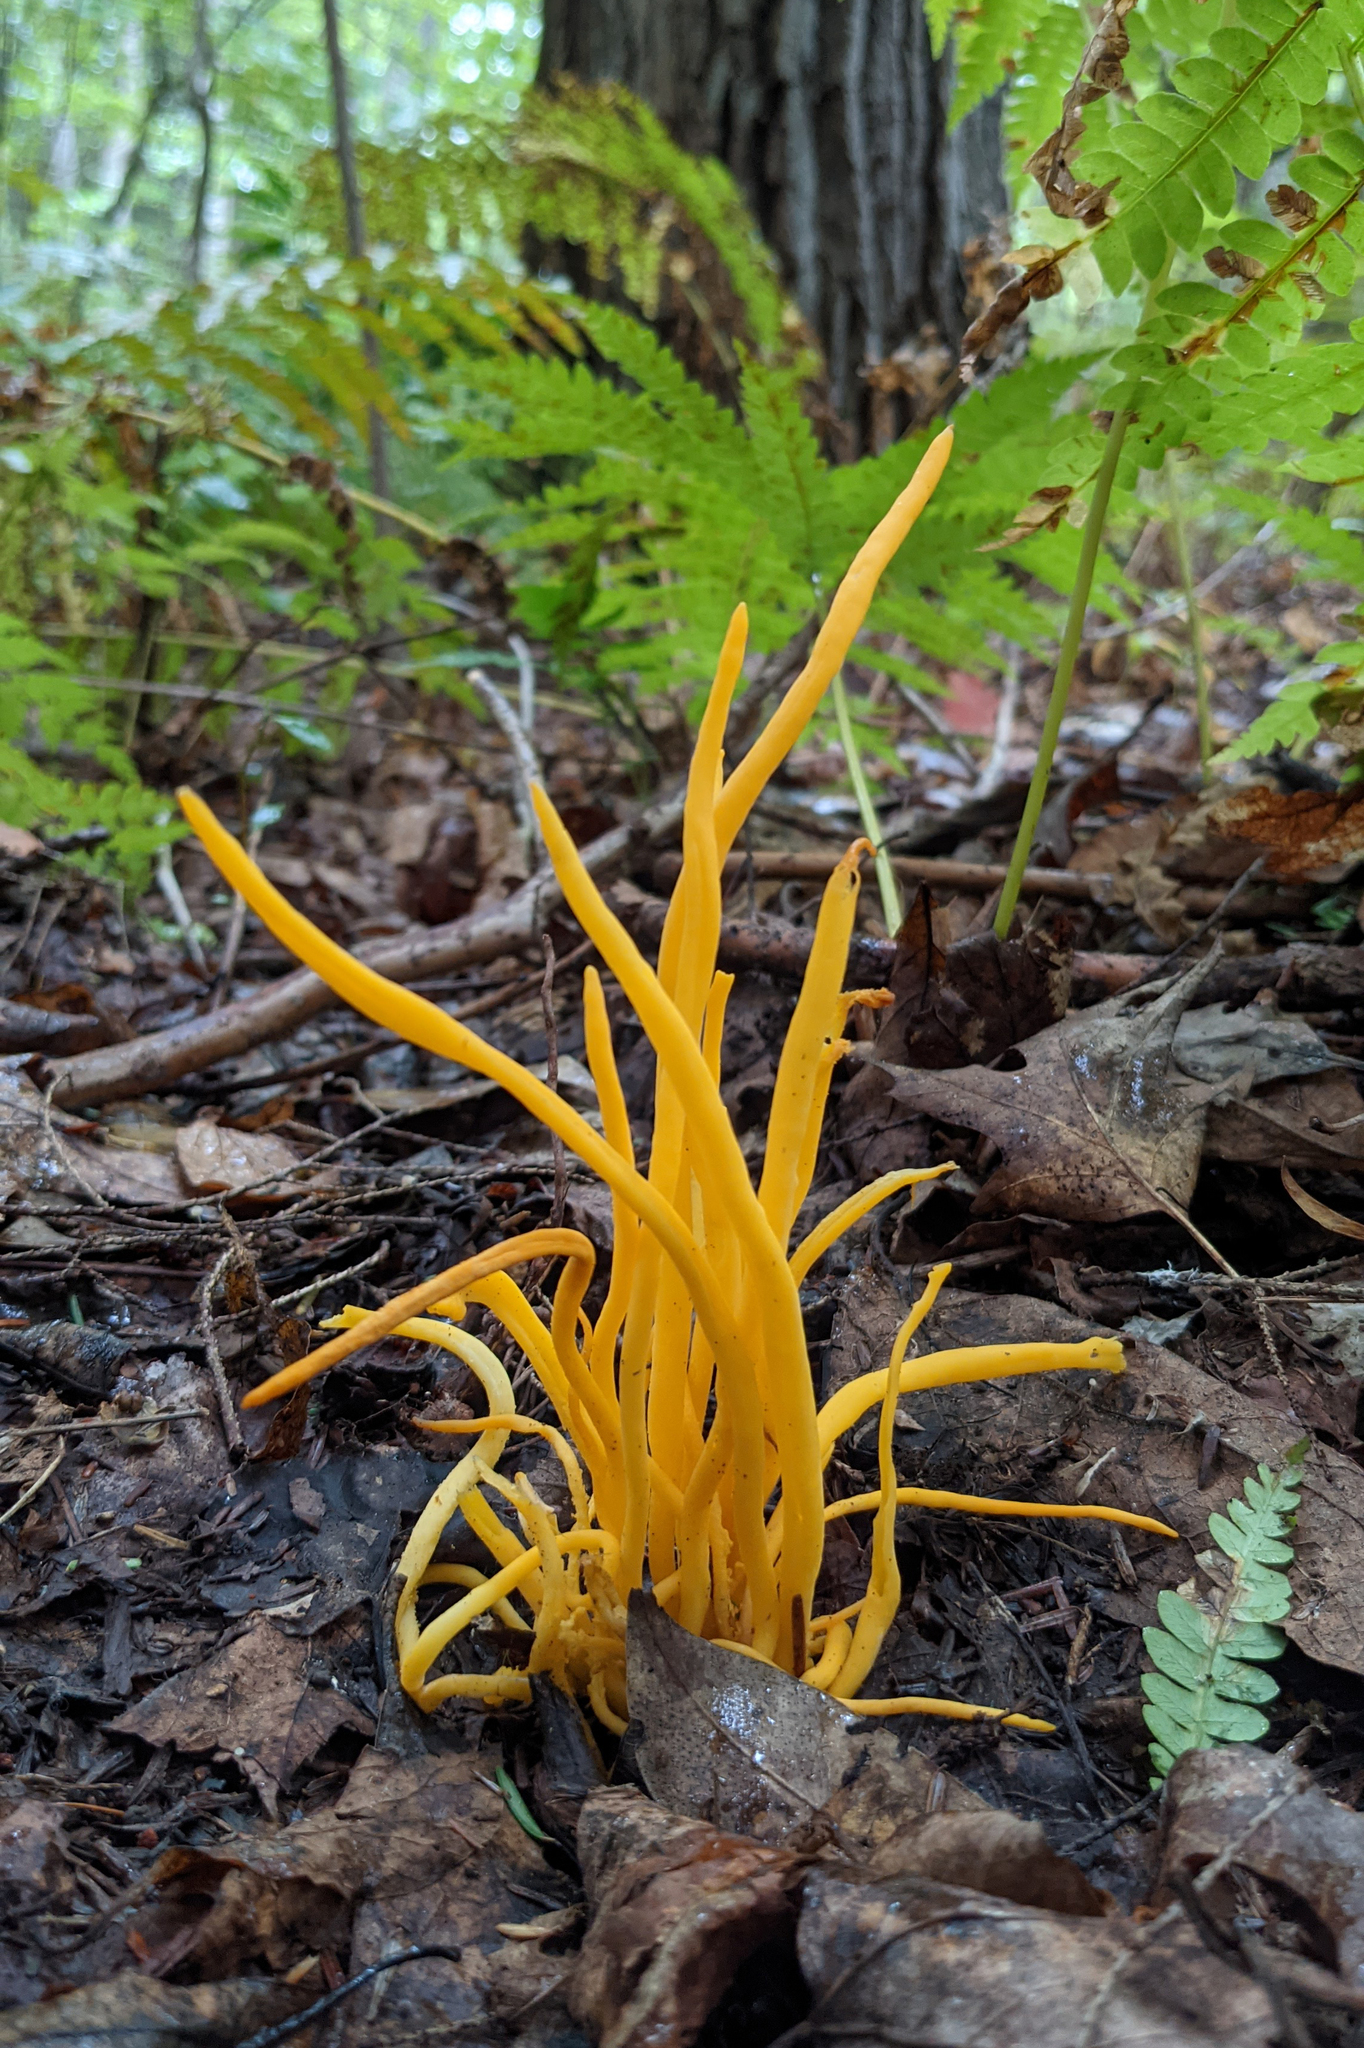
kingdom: Fungi
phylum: Basidiomycota
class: Agaricomycetes
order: Agaricales
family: Clavariaceae
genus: Clavulinopsis
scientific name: Clavulinopsis fusiformis
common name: Golden spindles
